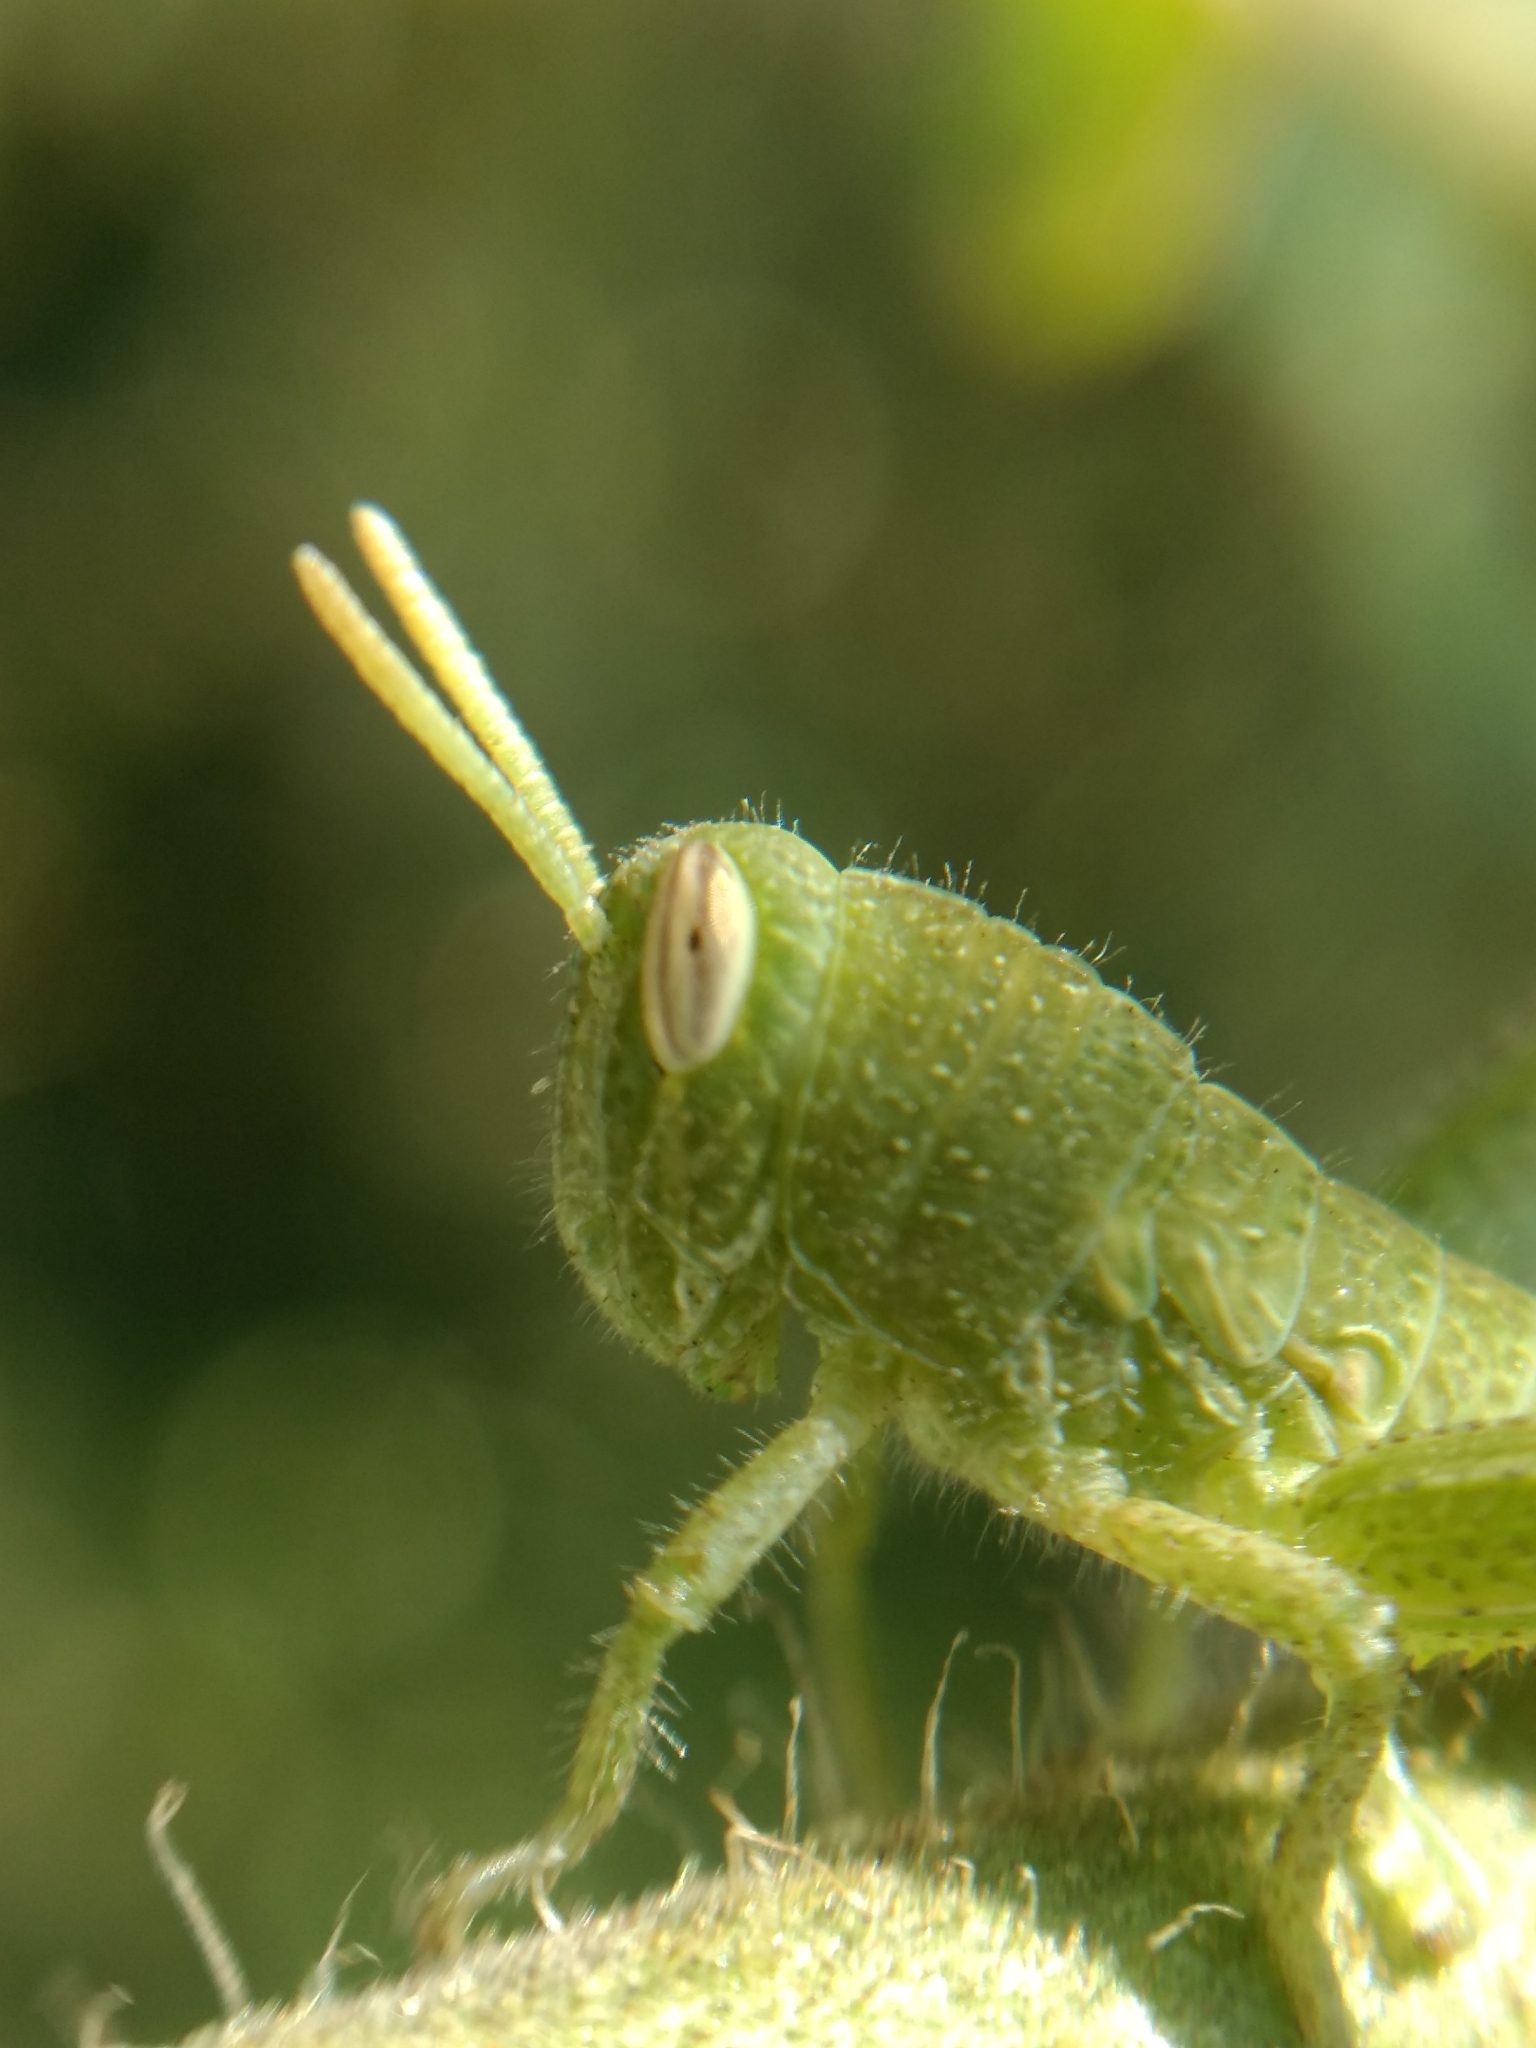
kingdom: Animalia
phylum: Arthropoda
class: Insecta
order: Orthoptera
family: Acrididae
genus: Schistocerca
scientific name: Schistocerca nitens
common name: Vagrant grasshopper
